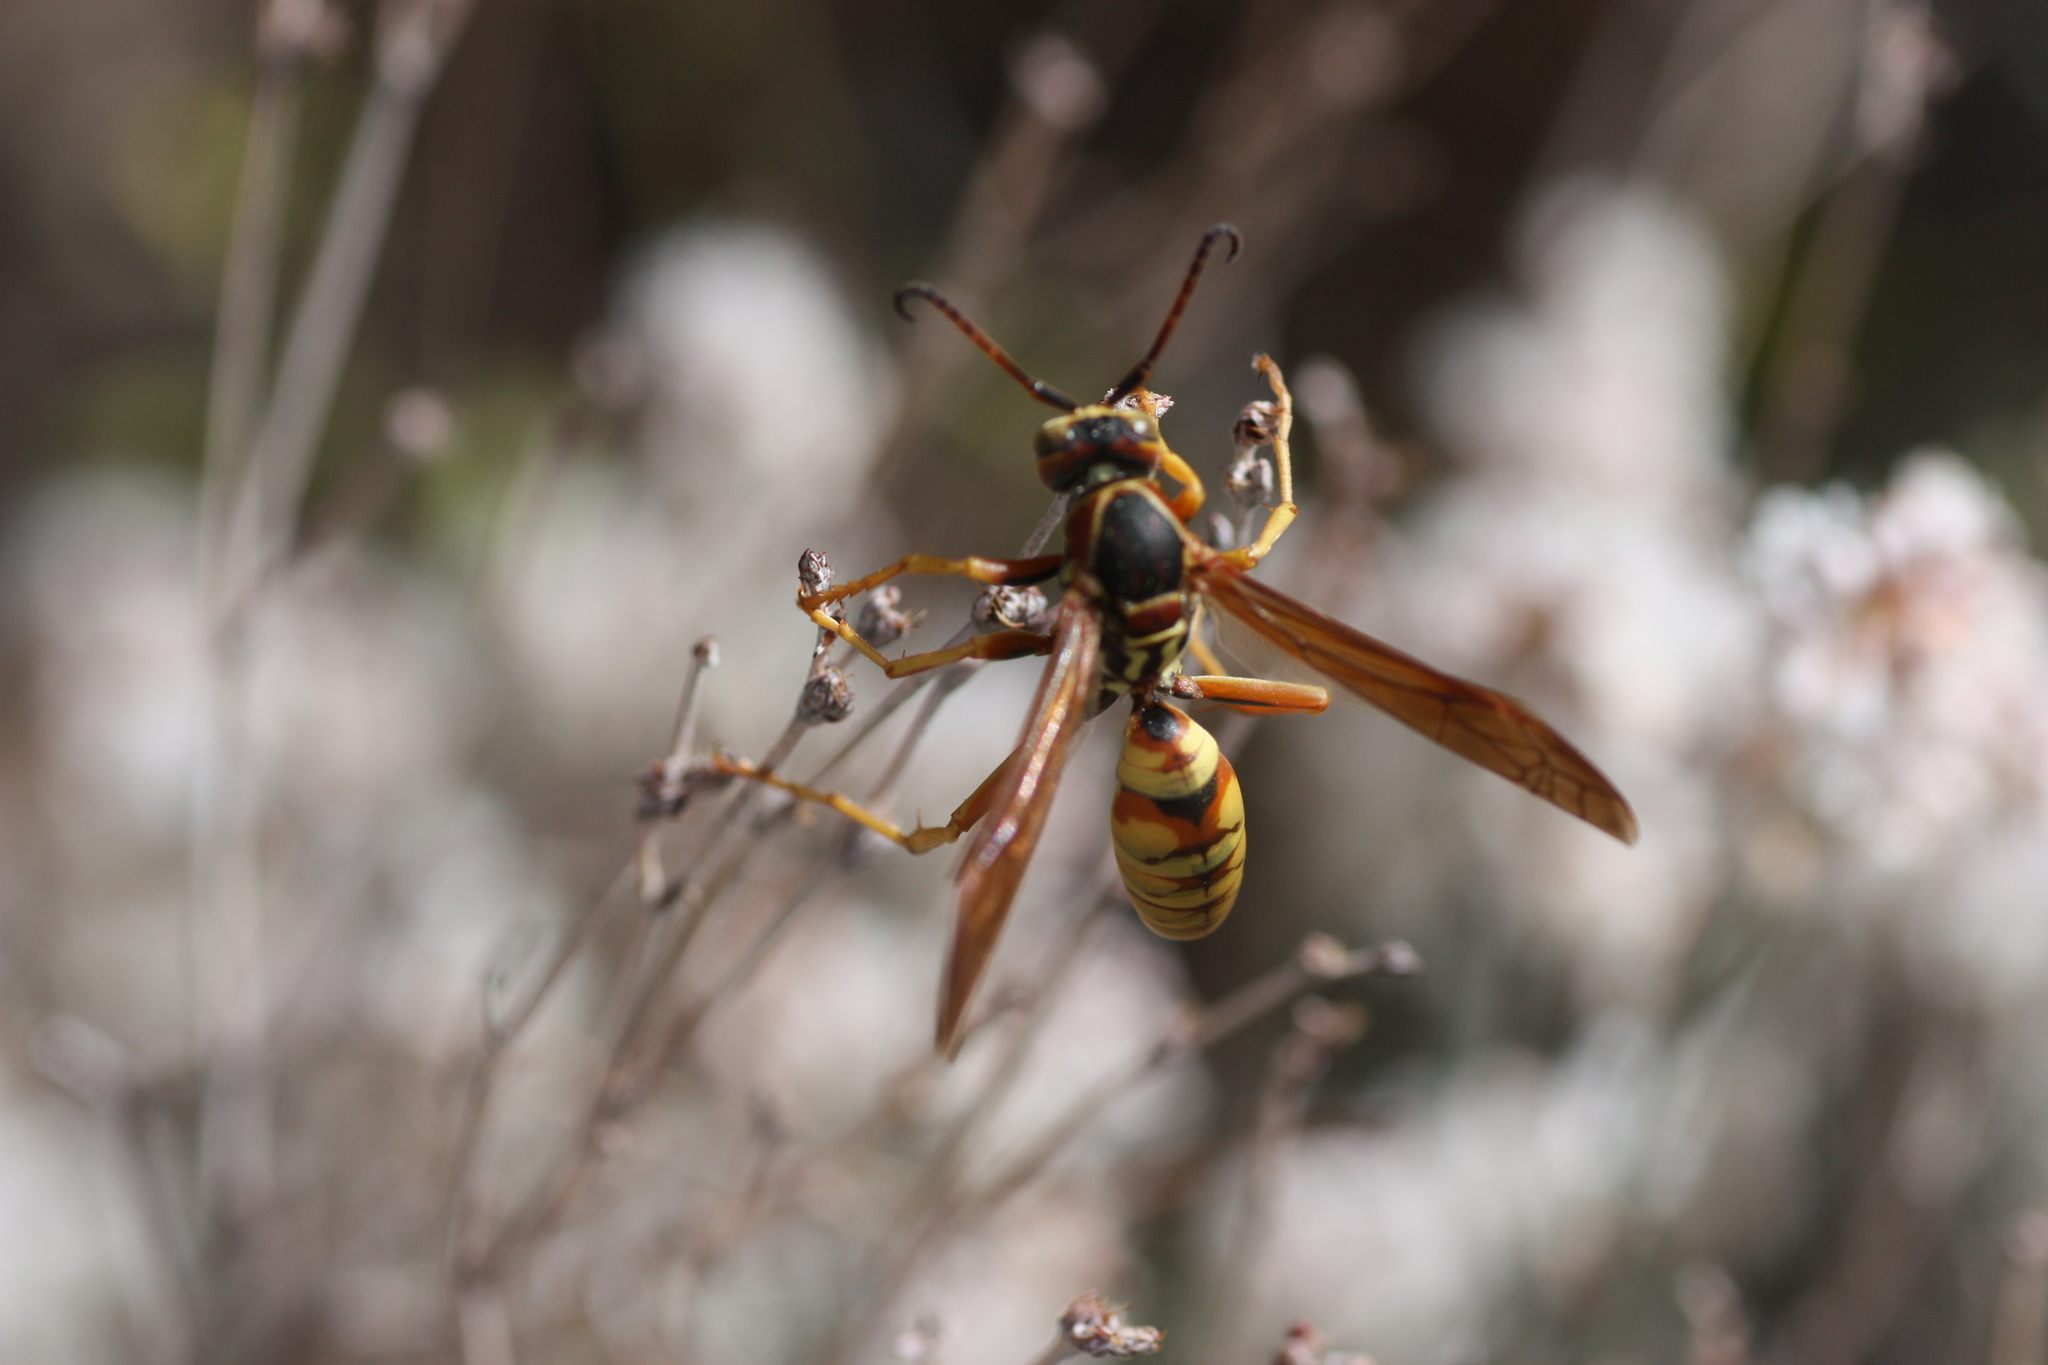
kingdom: Animalia
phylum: Arthropoda
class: Insecta
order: Hymenoptera
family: Eumenidae
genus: Polistes
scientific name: Polistes aurifer
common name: Paper wasp
